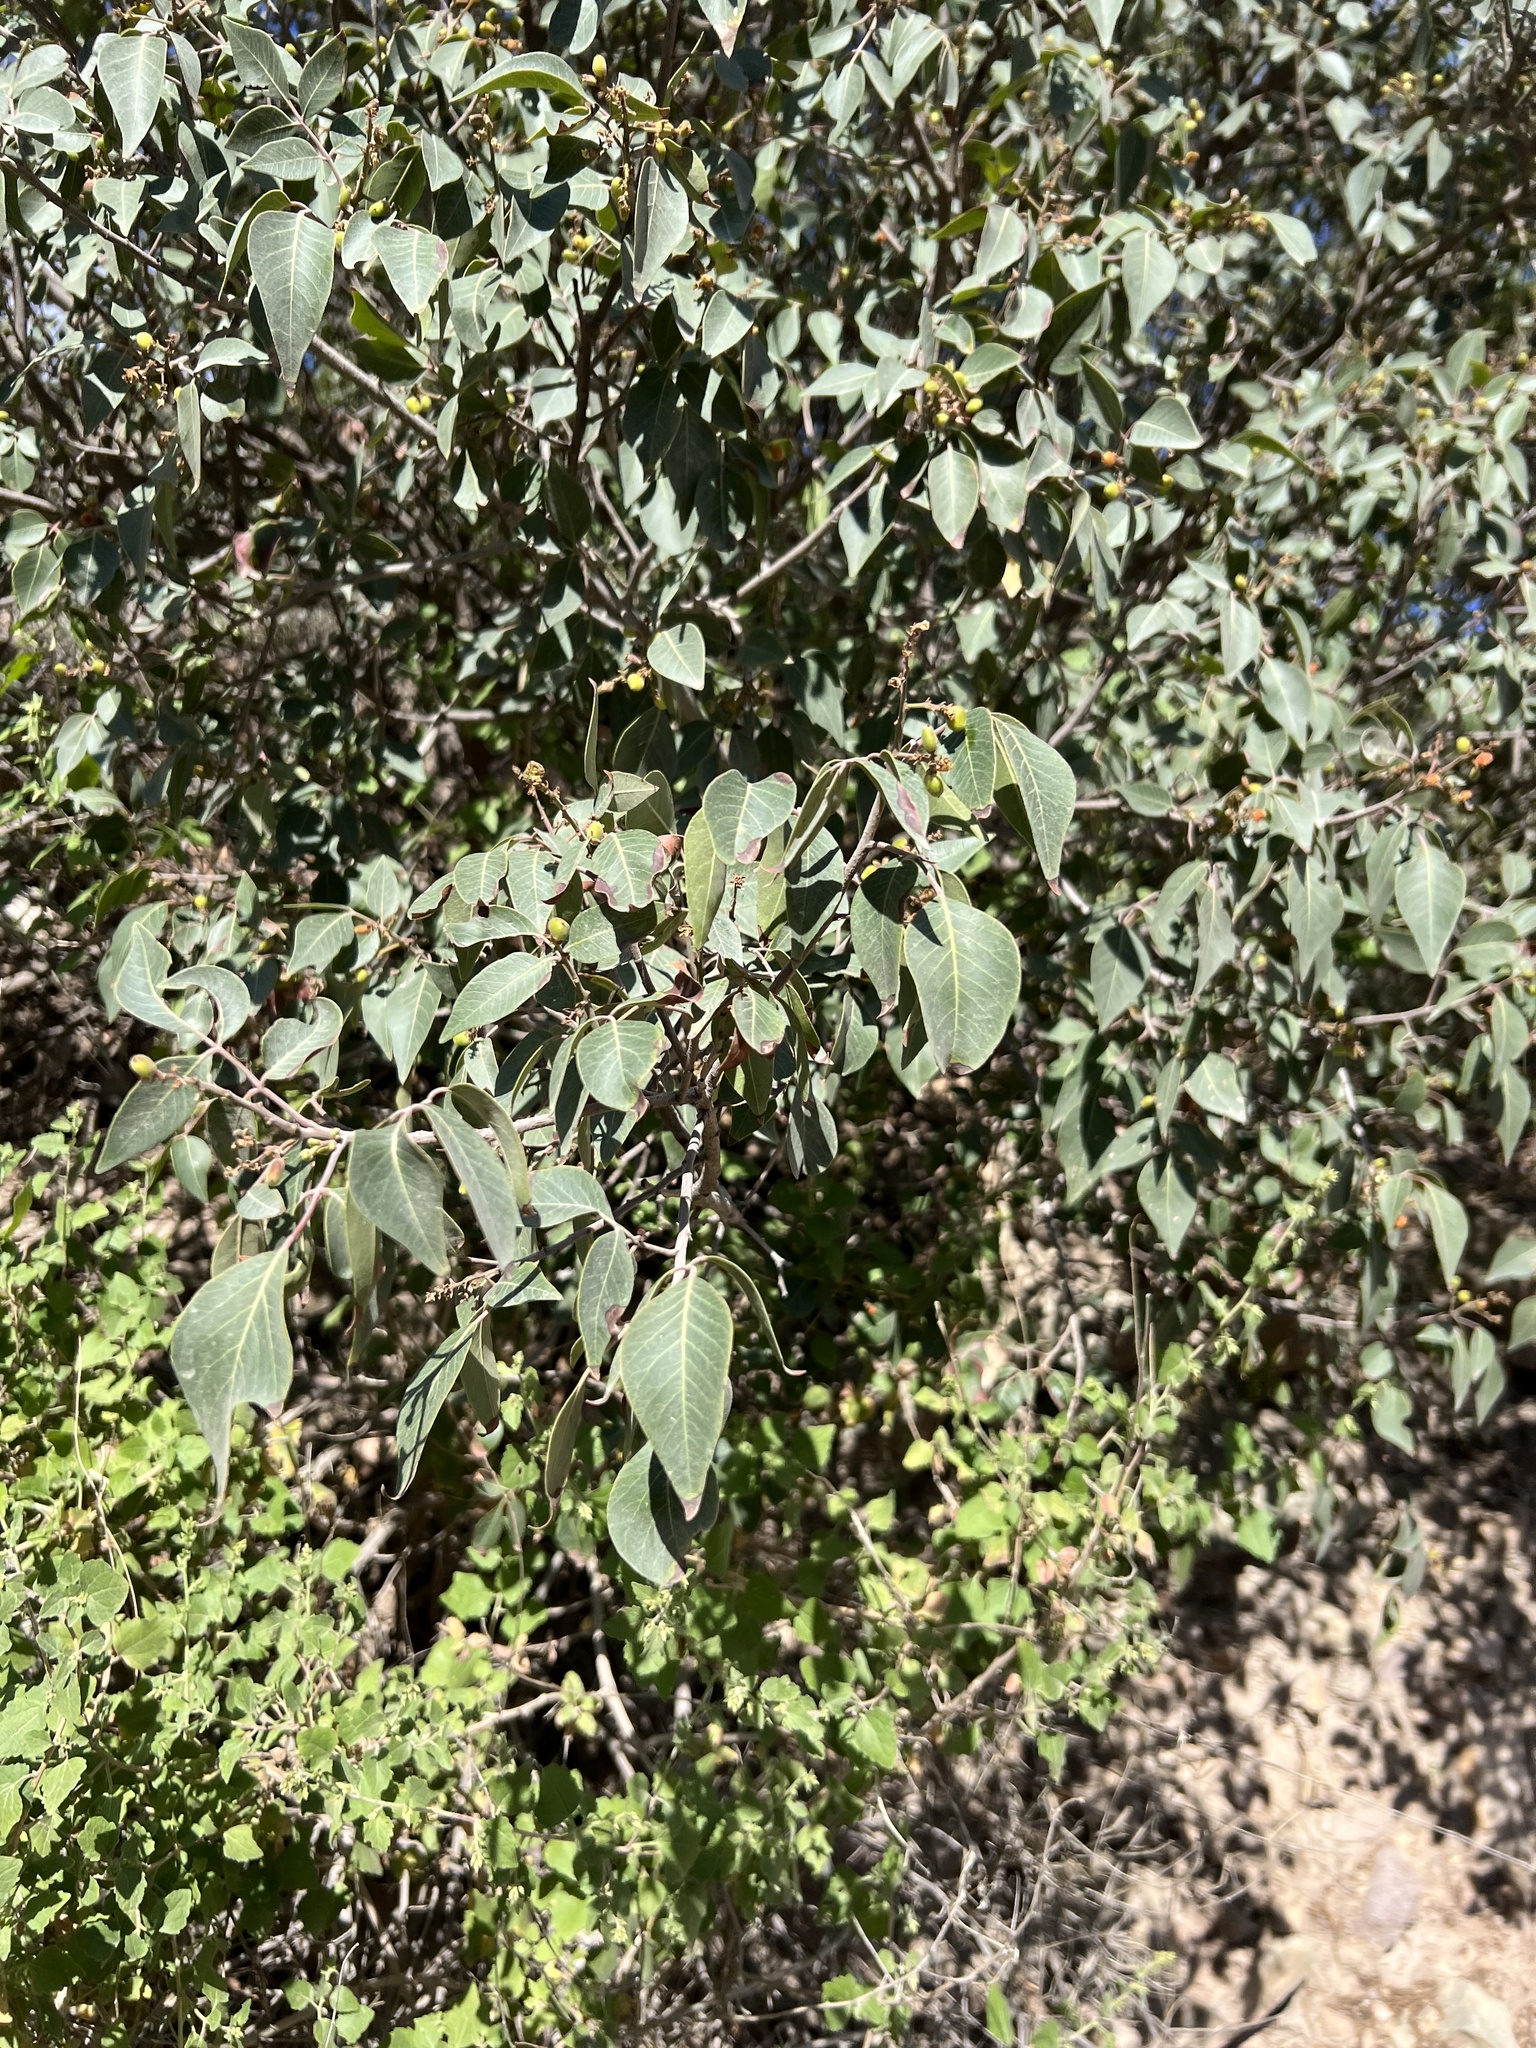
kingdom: Plantae
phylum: Tracheophyta
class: Magnoliopsida
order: Sapindales
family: Anacardiaceae
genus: Rhus
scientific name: Rhus virens
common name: Evergreen sumac
